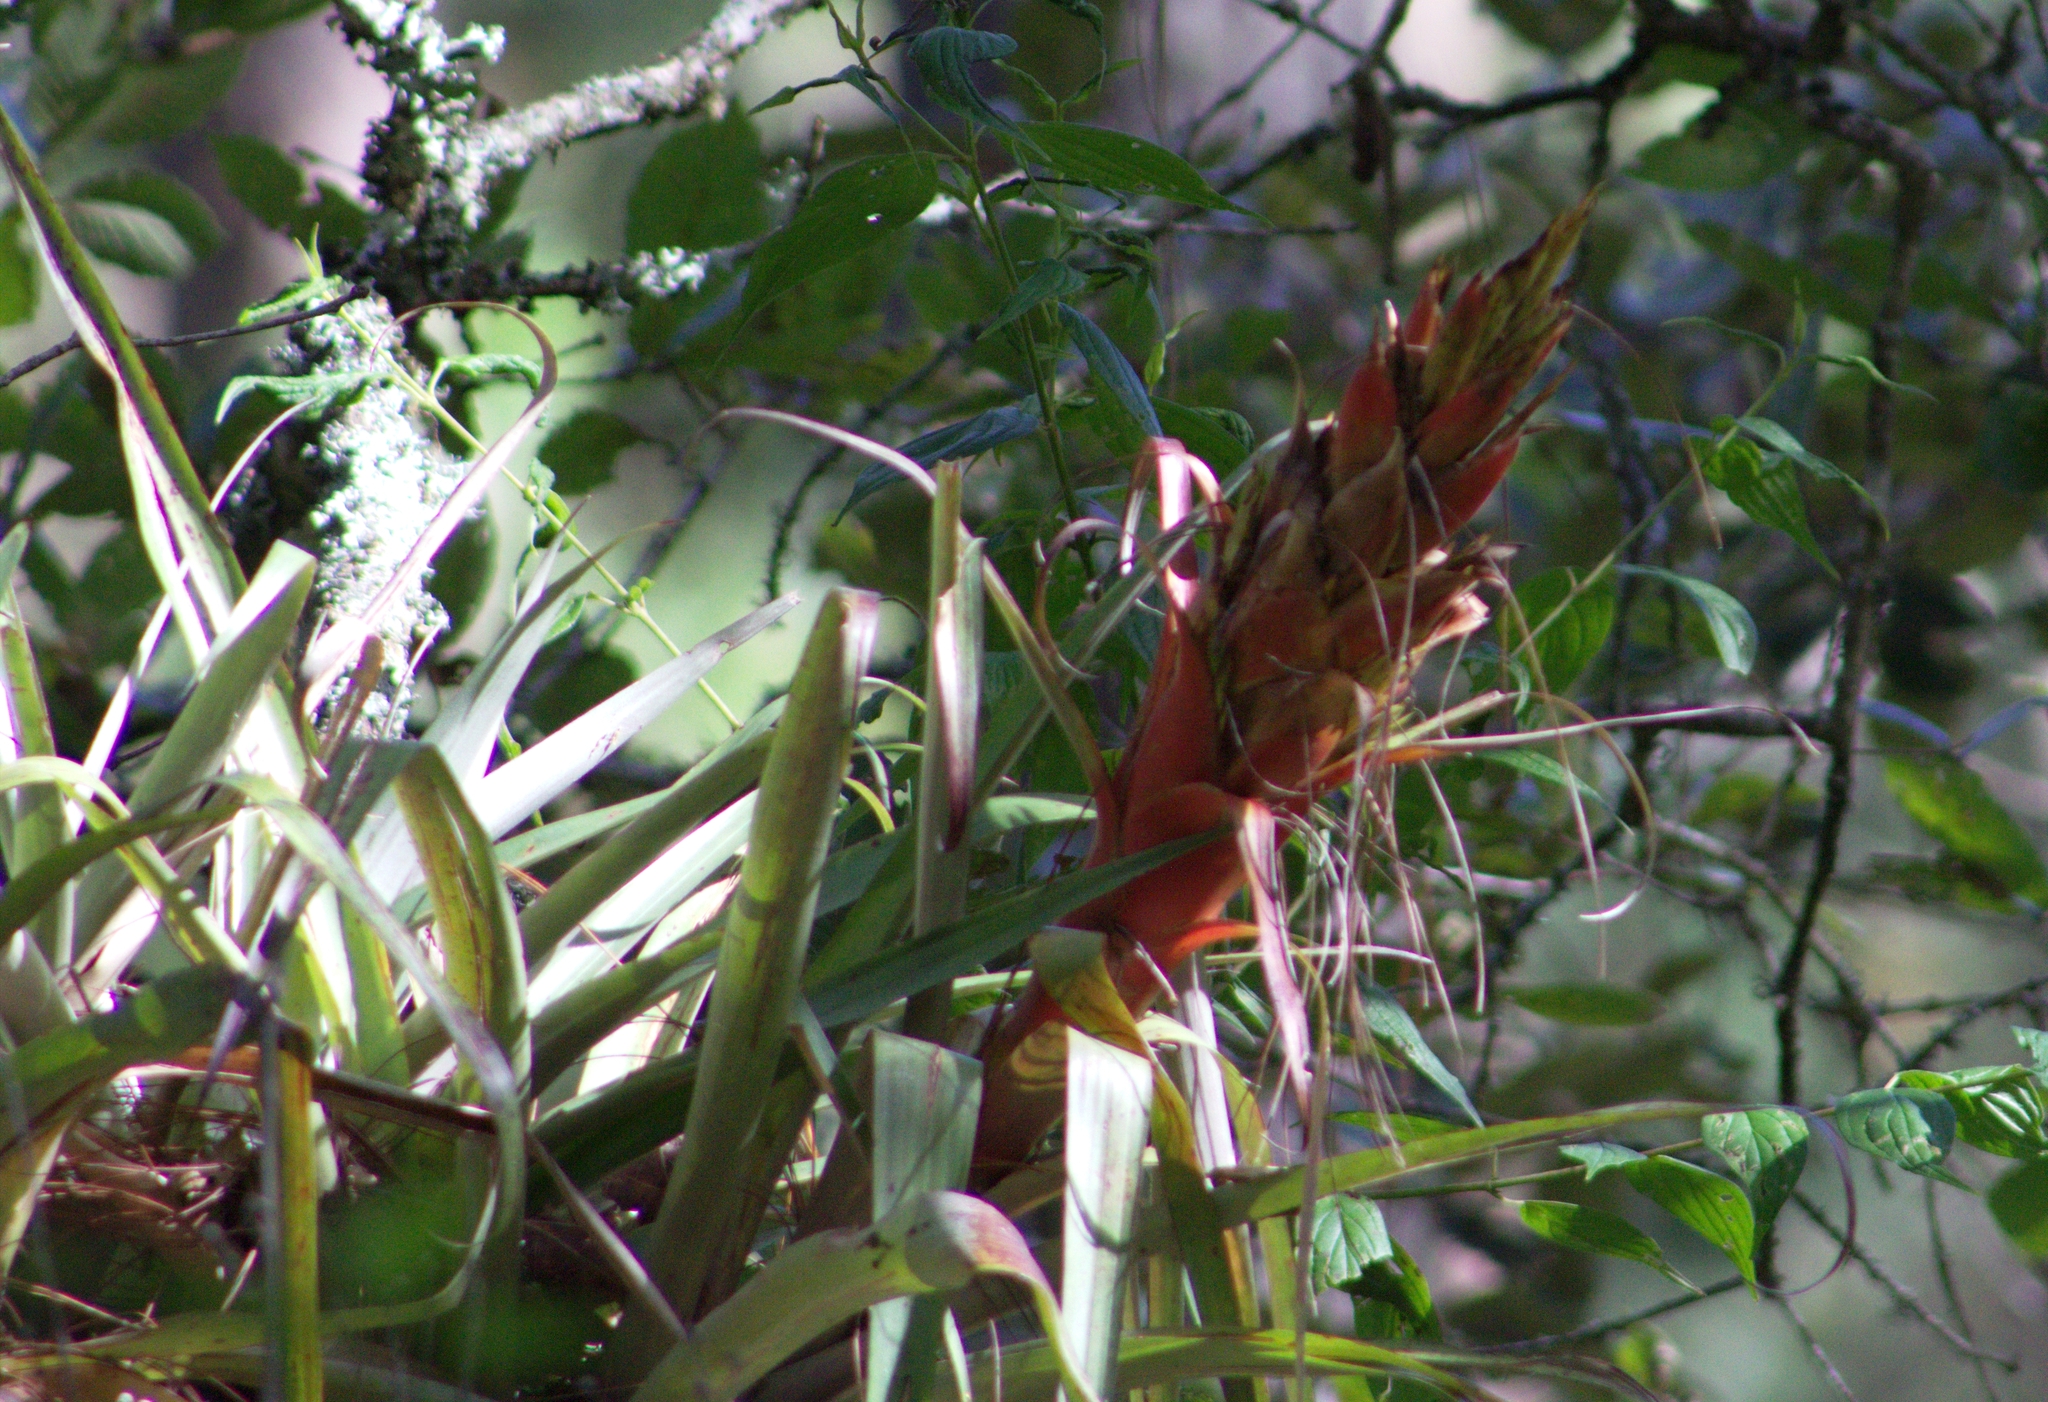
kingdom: Plantae
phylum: Tracheophyta
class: Liliopsida
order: Poales
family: Bromeliaceae
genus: Tillandsia
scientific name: Tillandsia ponderosa
